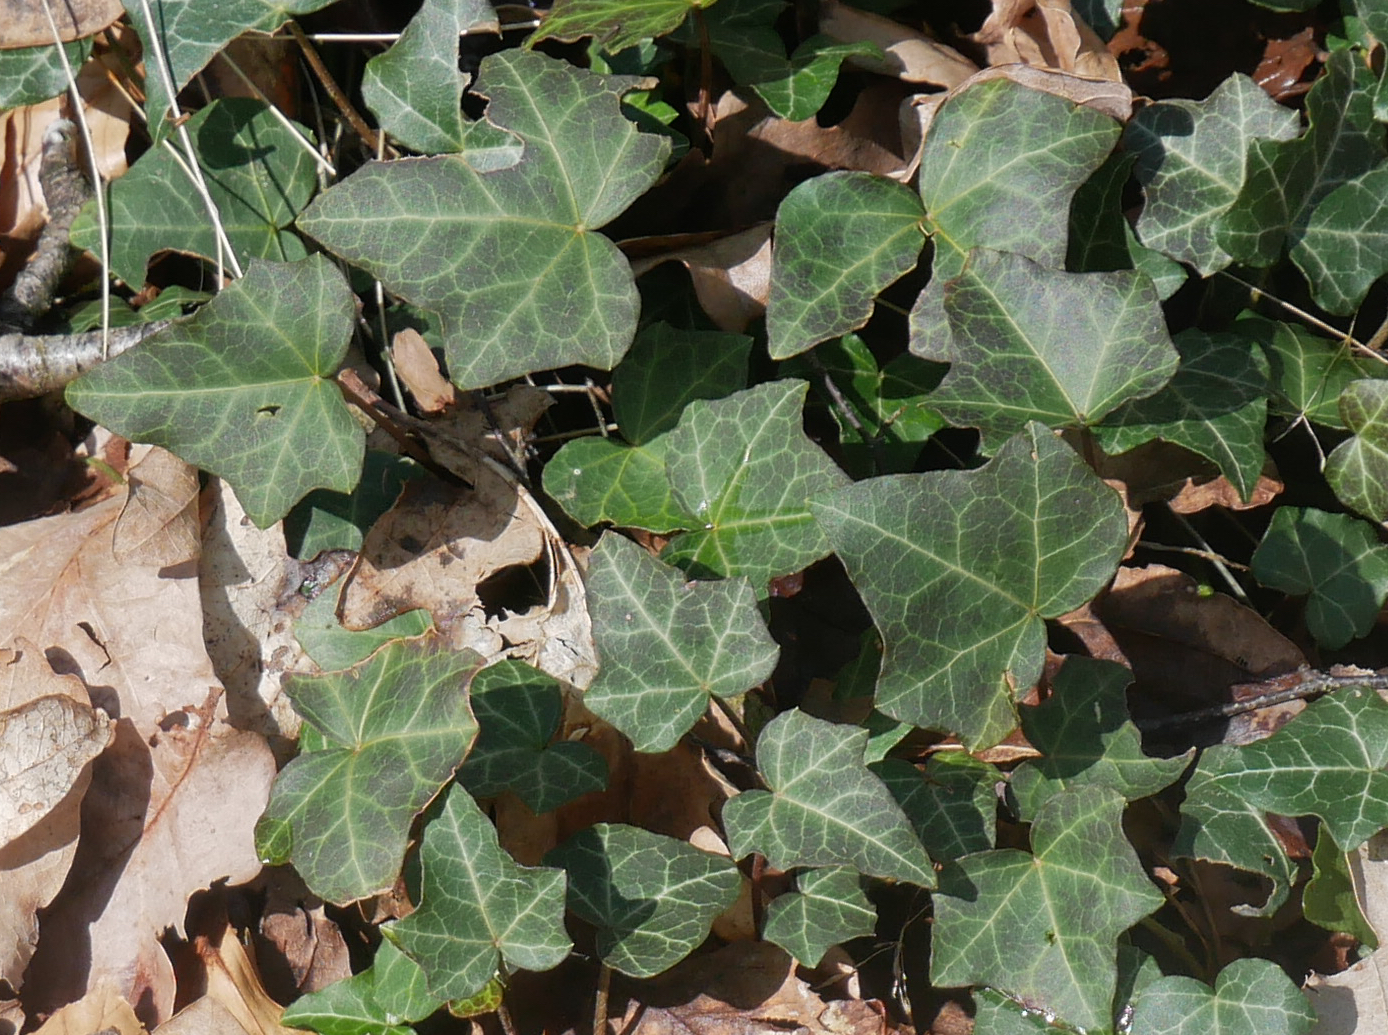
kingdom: Plantae
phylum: Tracheophyta
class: Magnoliopsida
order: Apiales
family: Araliaceae
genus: Hedera
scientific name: Hedera helix
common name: Ivy
